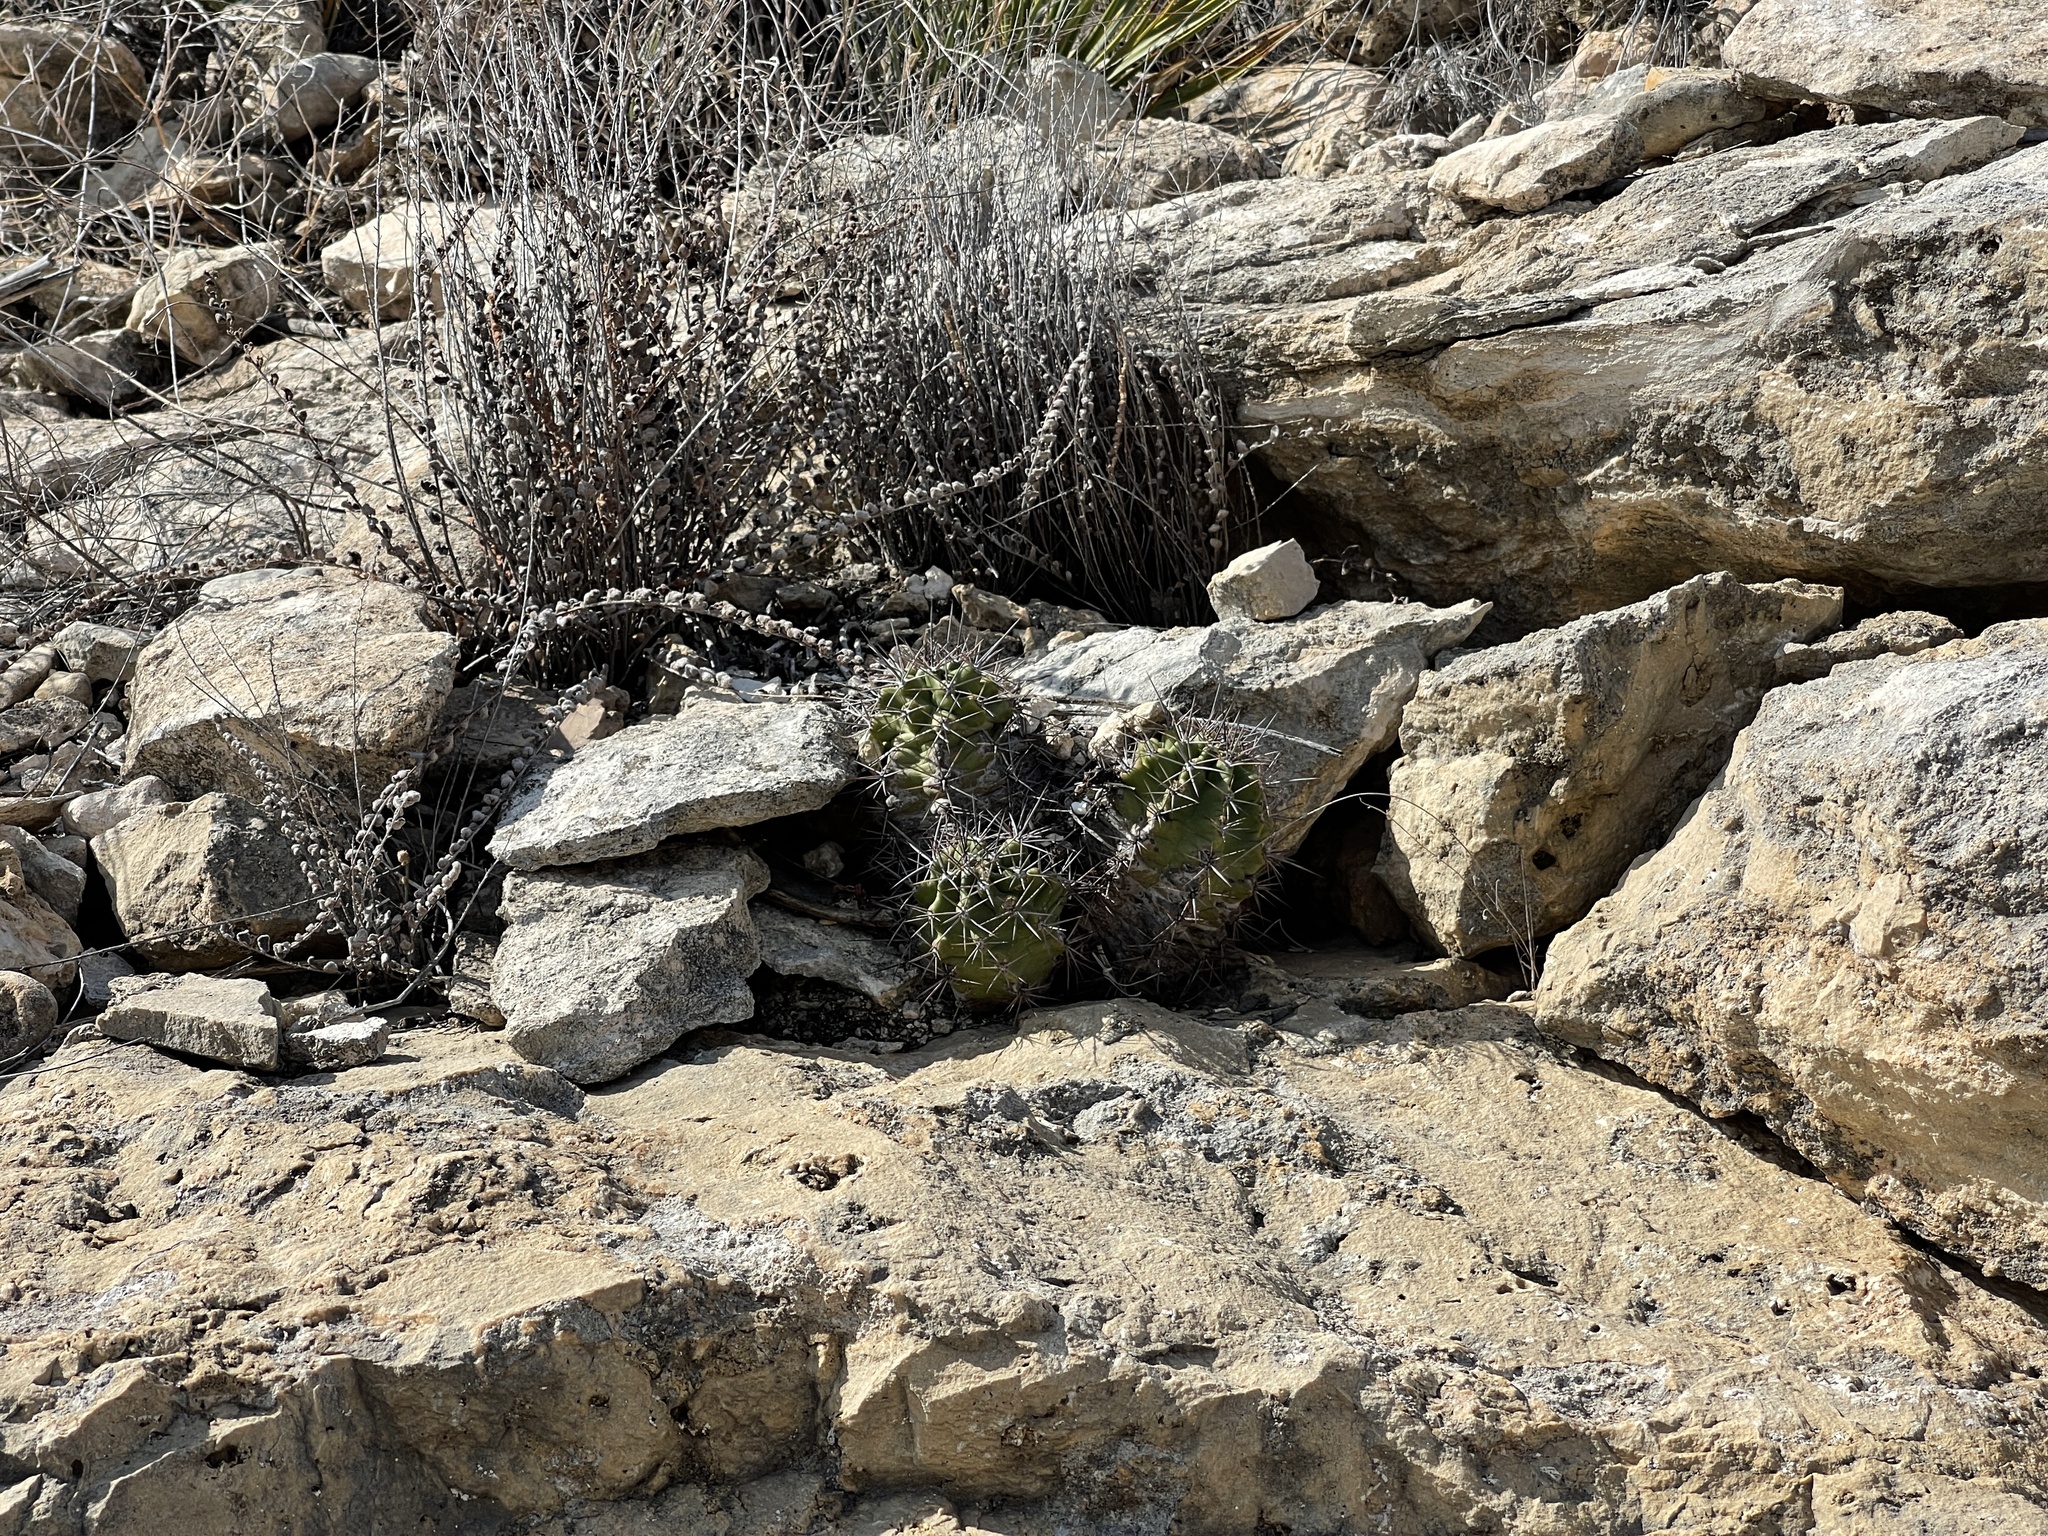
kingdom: Plantae
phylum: Tracheophyta
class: Magnoliopsida
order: Caryophyllales
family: Cactaceae
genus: Echinocereus
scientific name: Echinocereus coccineus
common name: Scarlet hedgehog cactus
